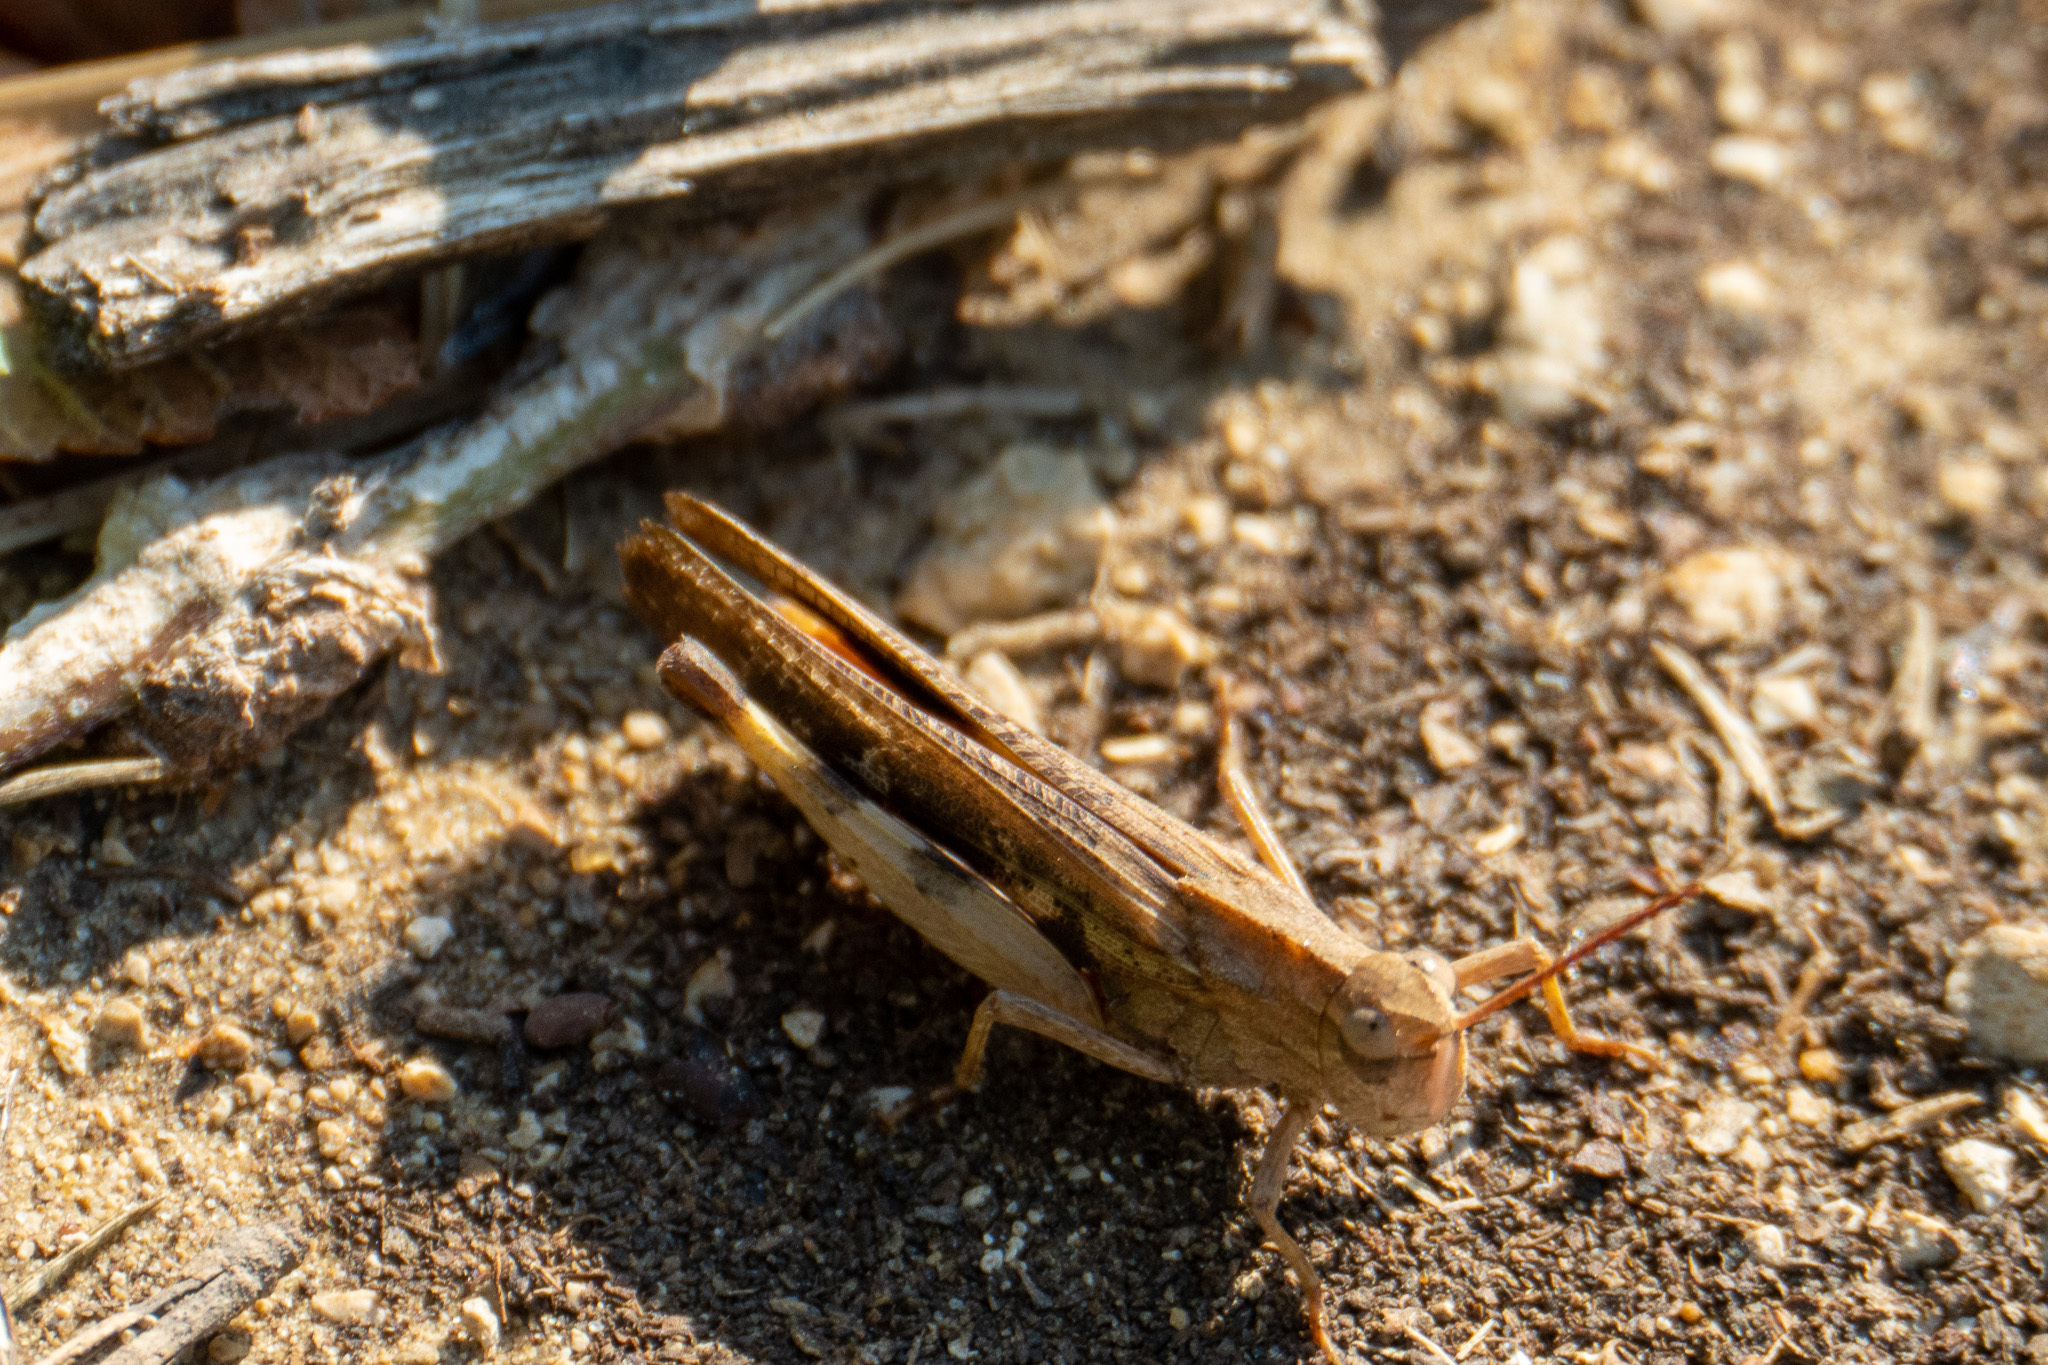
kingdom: Animalia
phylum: Arthropoda
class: Insecta
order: Orthoptera
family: Acrididae
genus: Chortophaga
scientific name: Chortophaga viridifasciata
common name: Green-striped grasshopper
